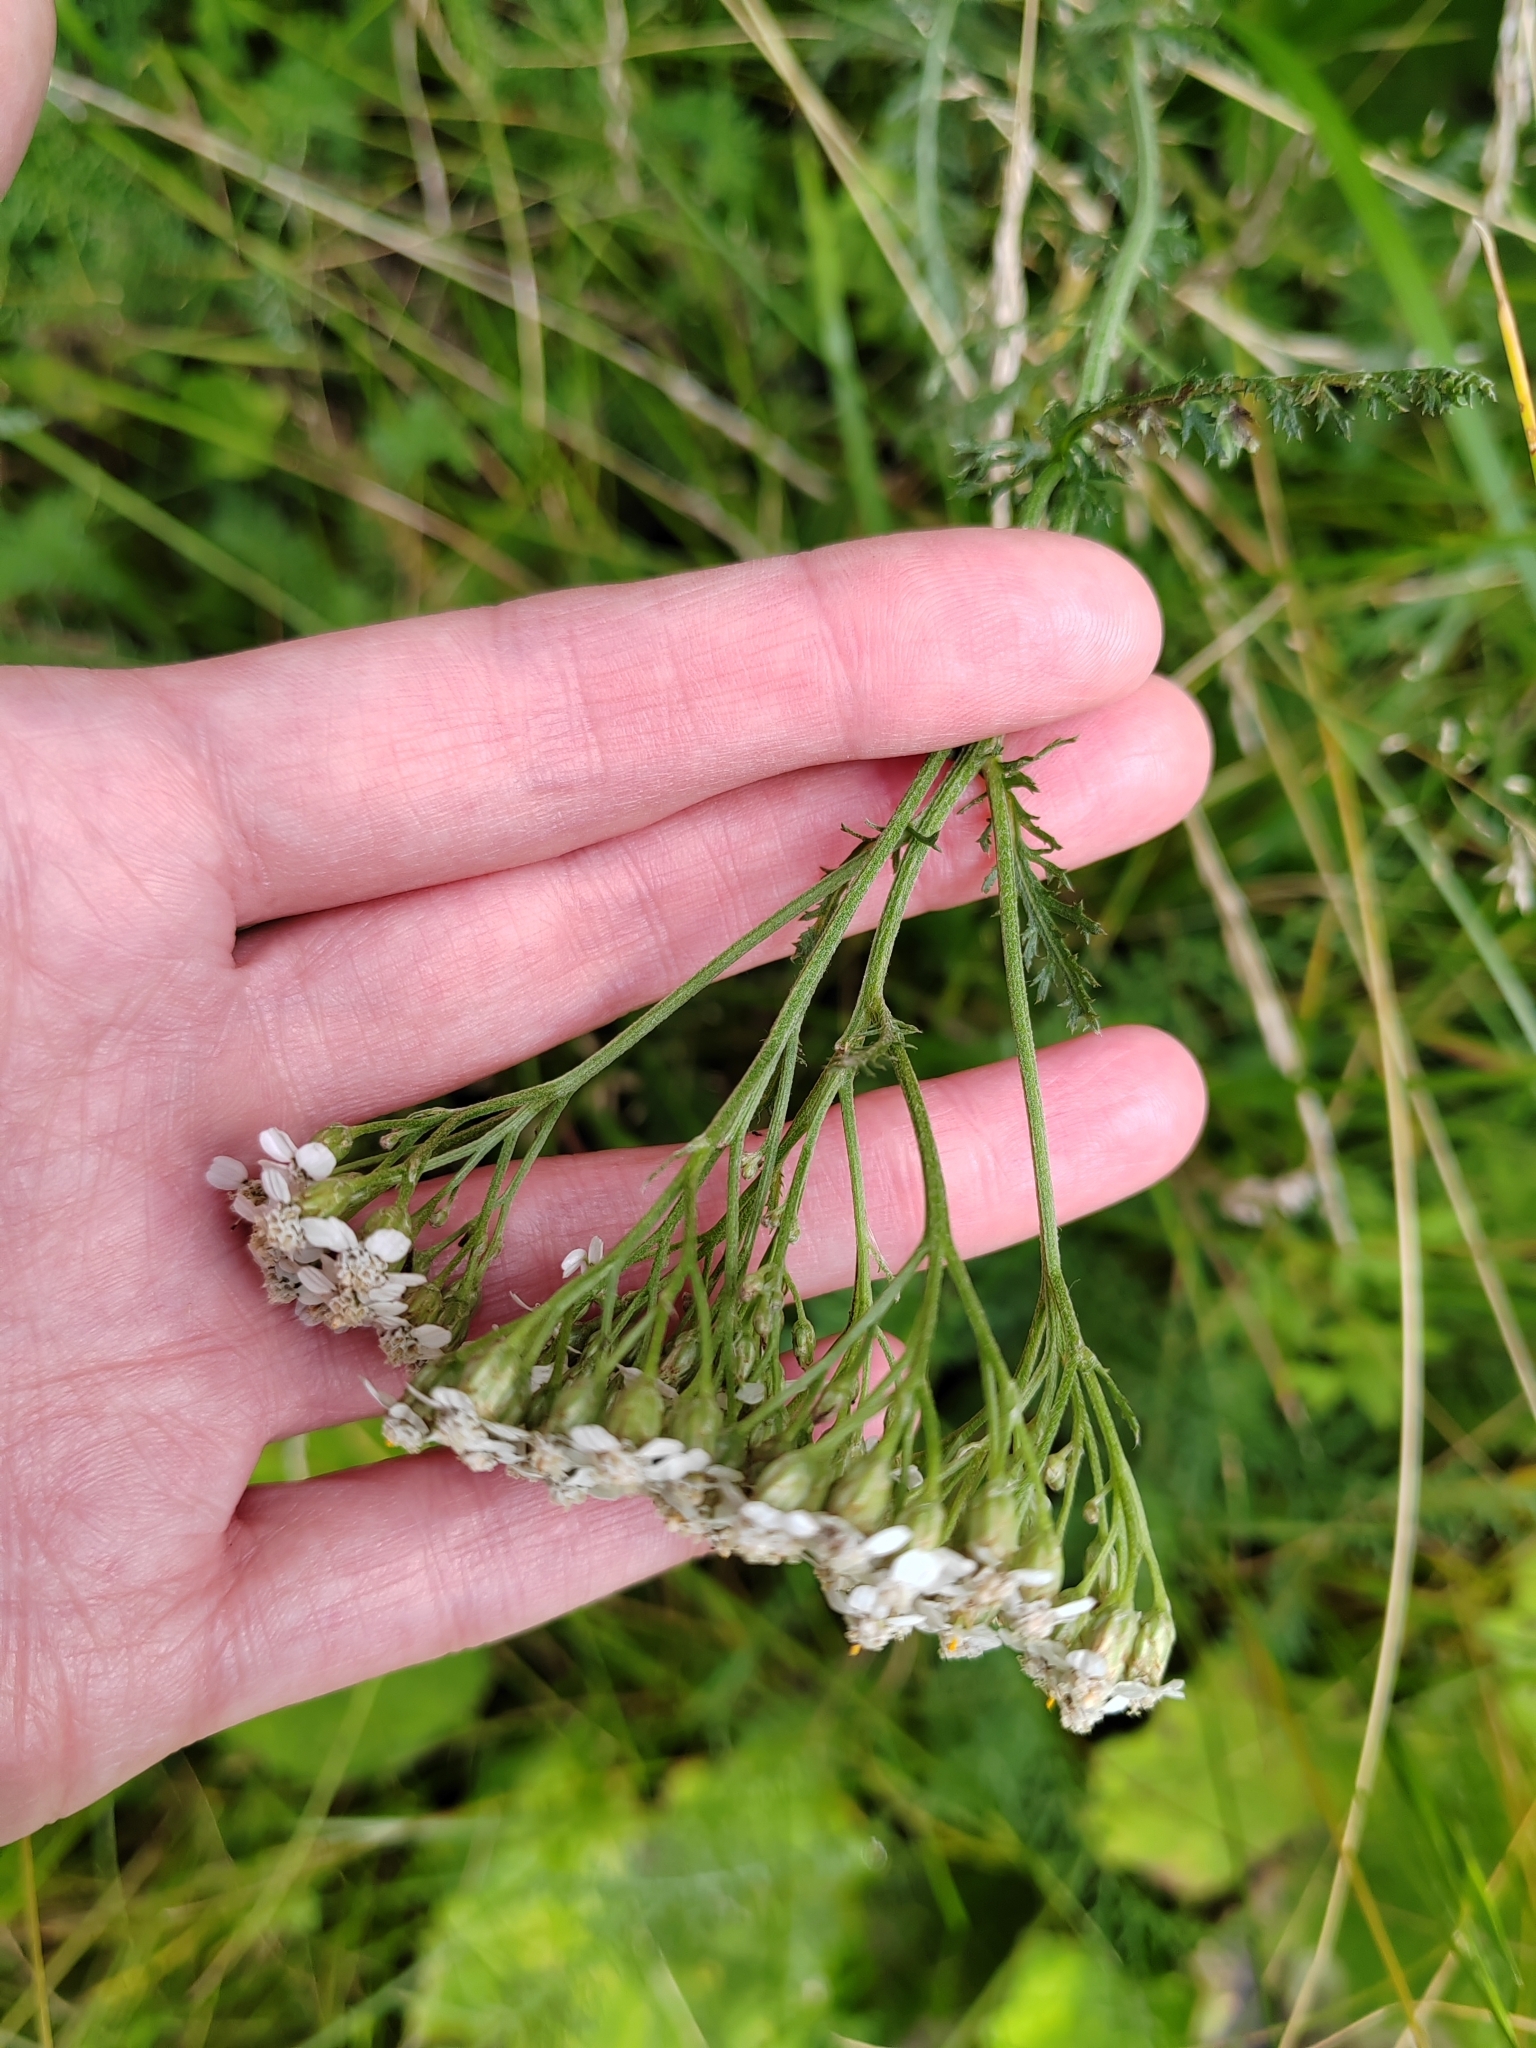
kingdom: Plantae
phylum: Tracheophyta
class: Magnoliopsida
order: Asterales
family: Asteraceae
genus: Achillea
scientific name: Achillea millefolium
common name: Yarrow
